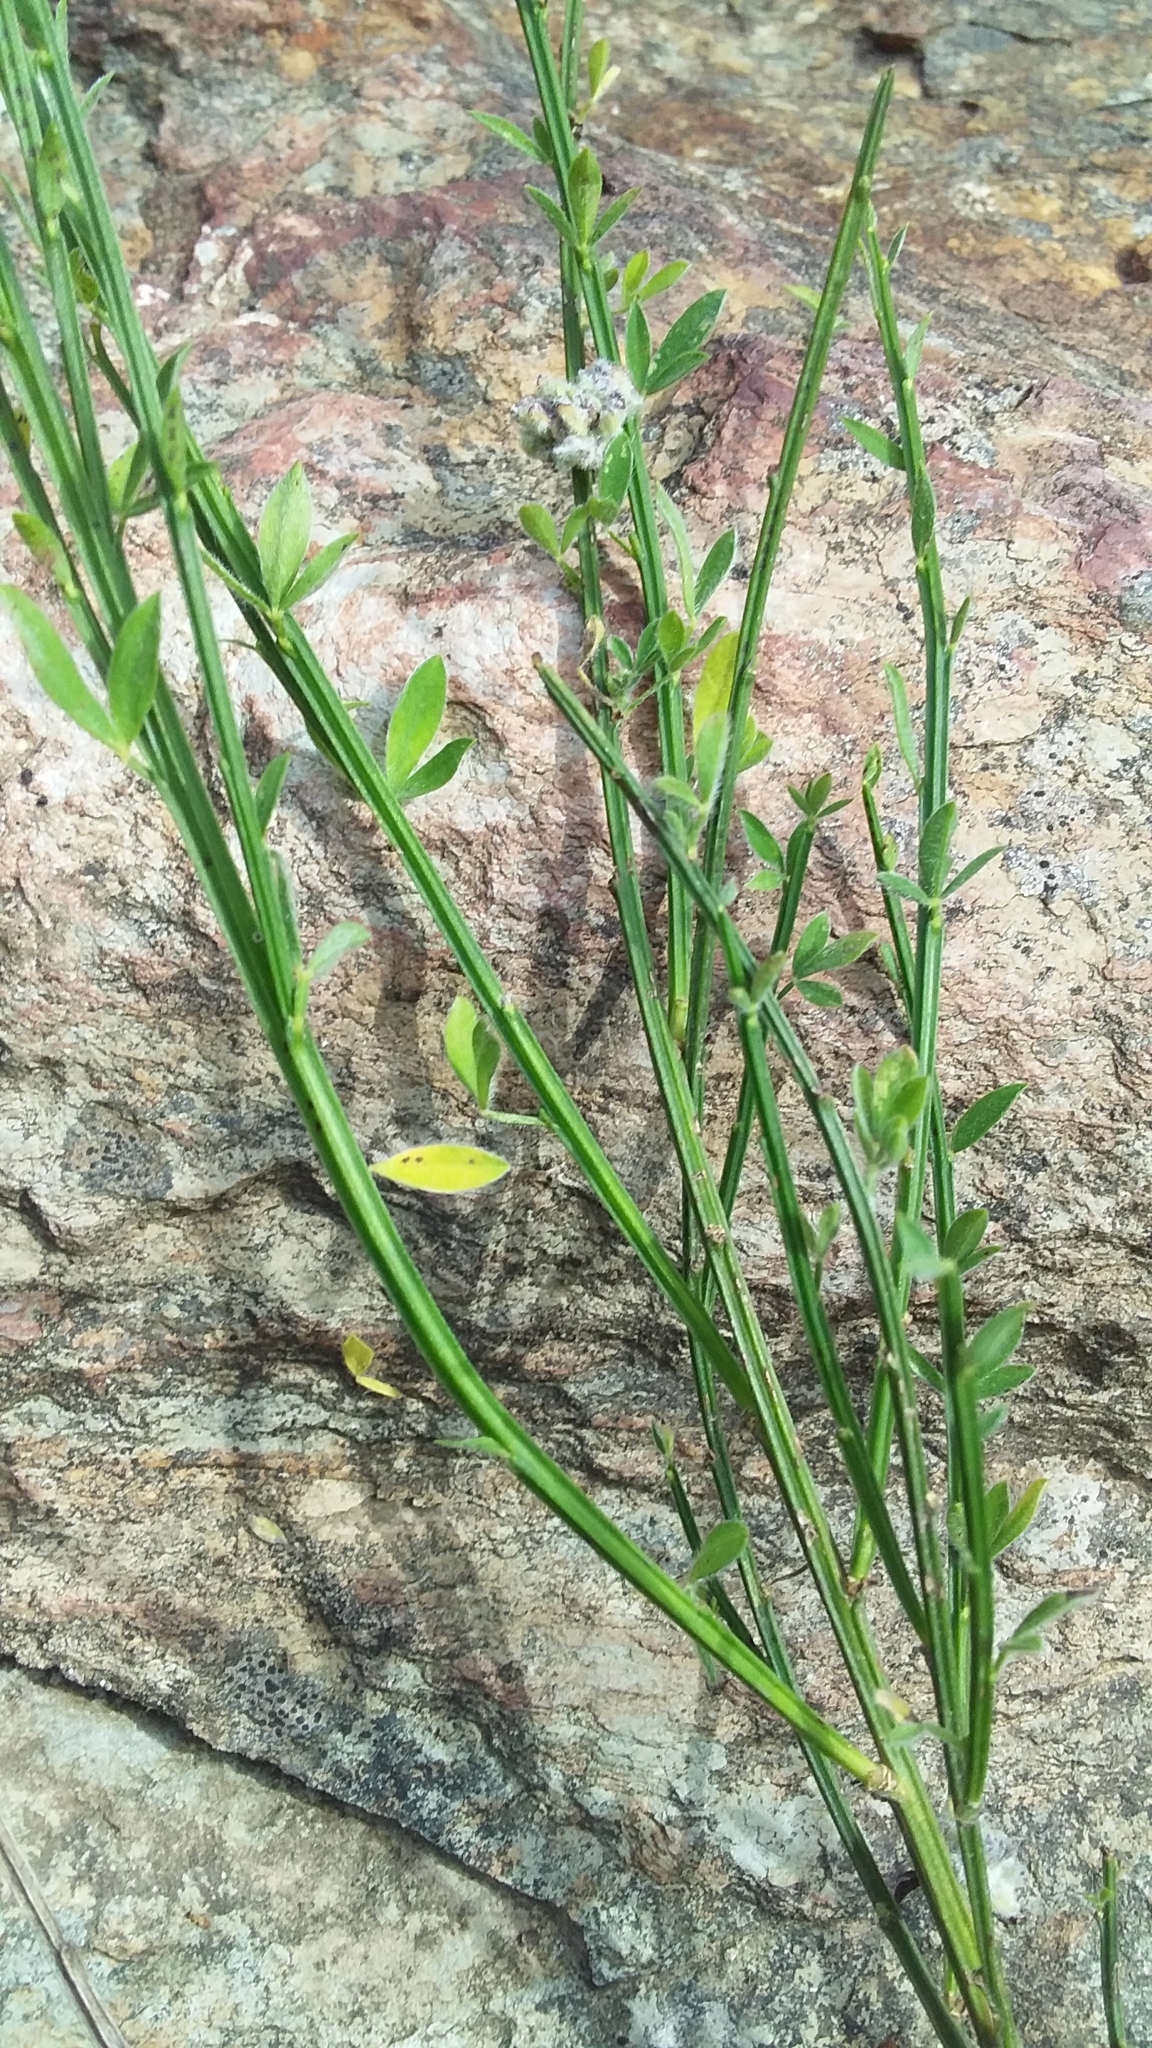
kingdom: Plantae
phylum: Tracheophyta
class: Magnoliopsida
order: Fabales
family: Fabaceae
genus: Cytisus
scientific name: Cytisus scoparius
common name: Scotch broom
